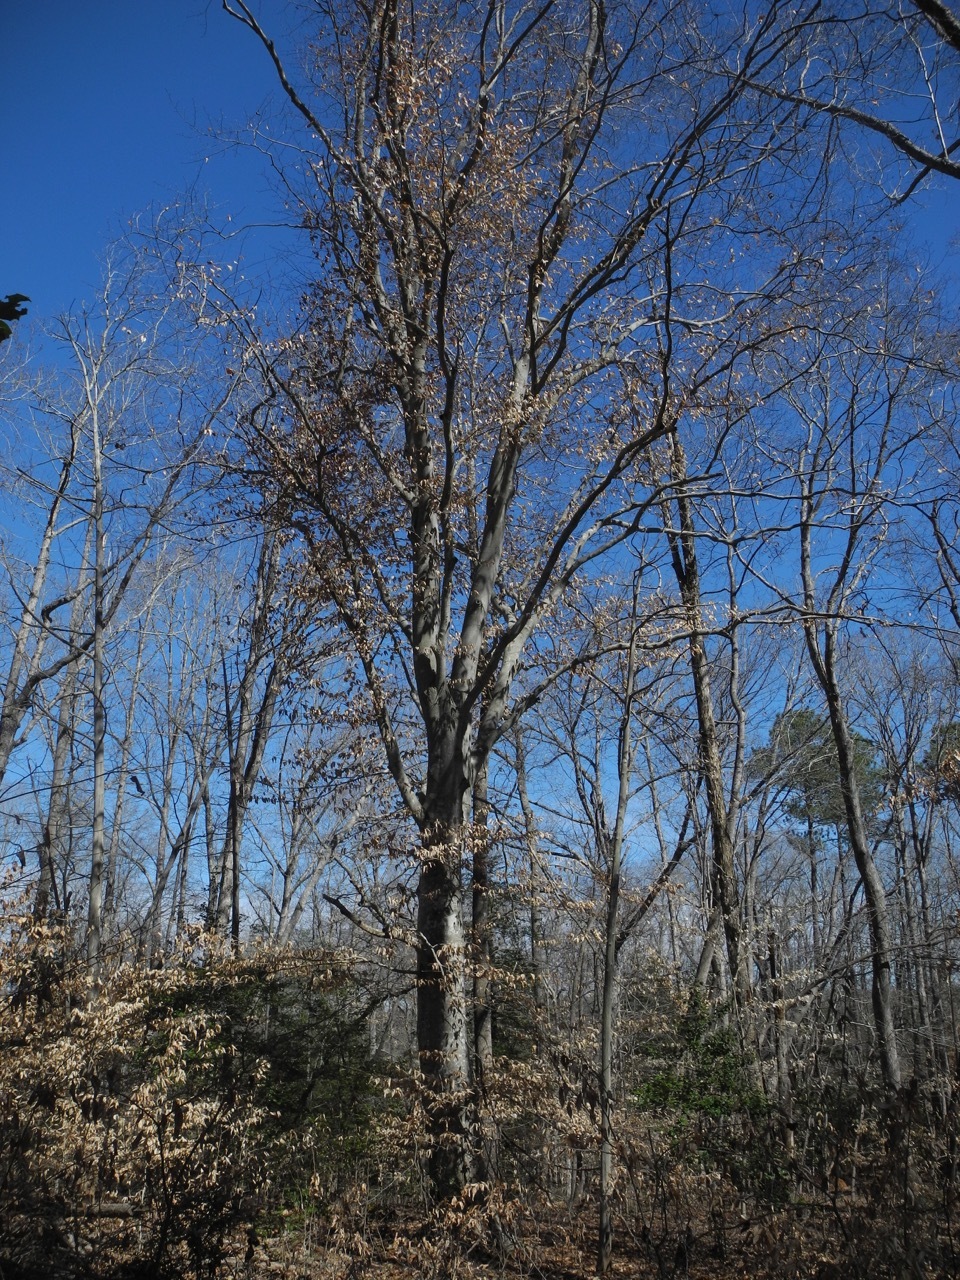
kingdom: Plantae
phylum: Tracheophyta
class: Magnoliopsida
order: Fagales
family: Fagaceae
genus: Fagus
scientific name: Fagus grandifolia
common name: American beech
